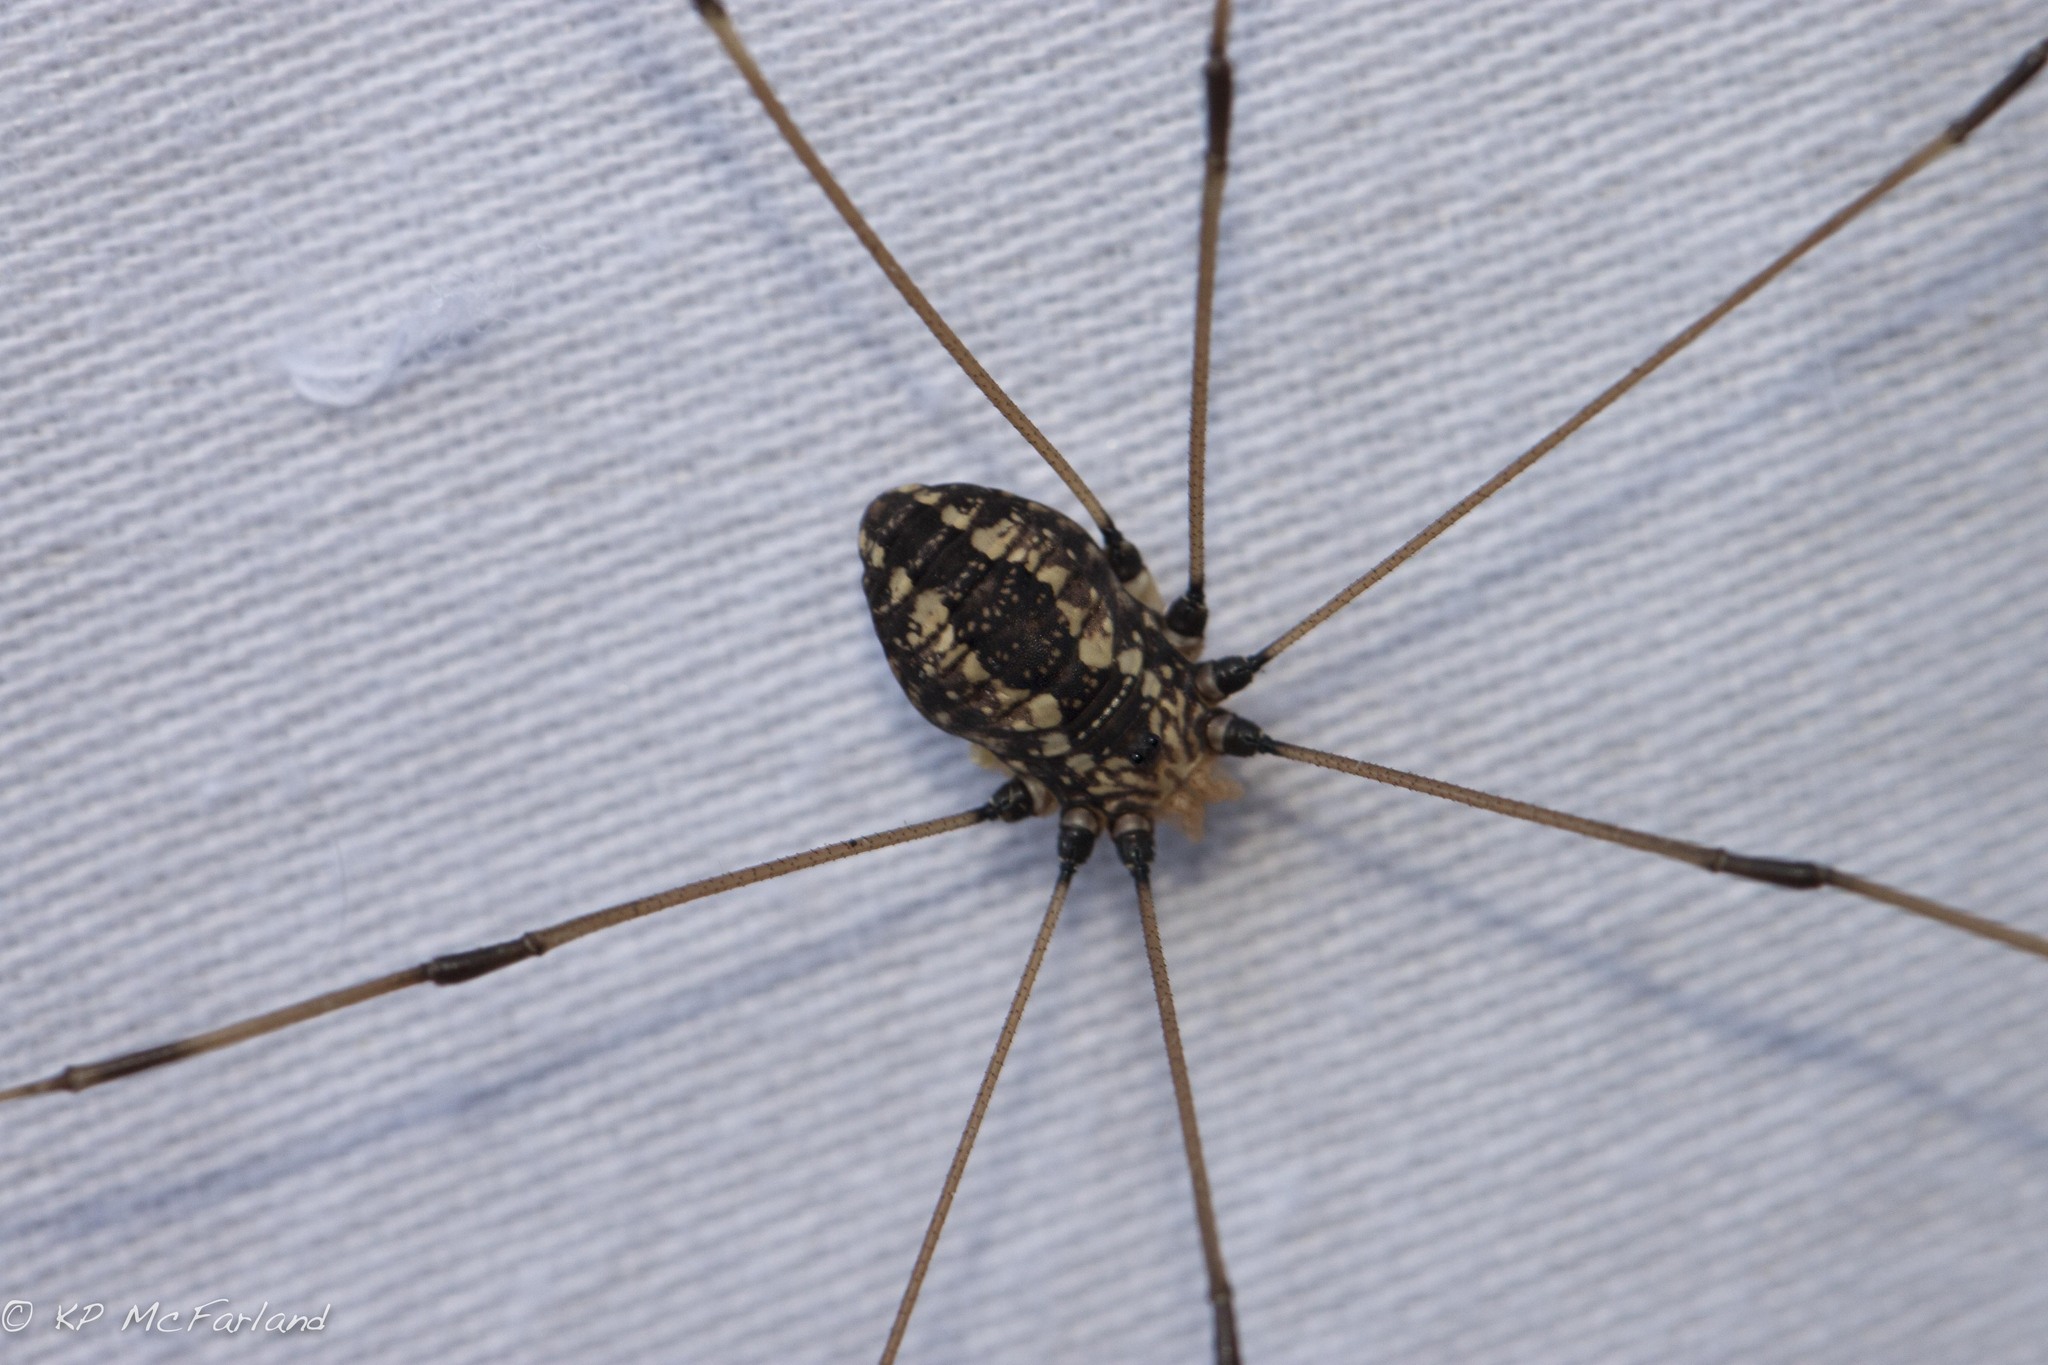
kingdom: Animalia
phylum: Arthropoda
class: Arachnida
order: Opiliones
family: Sclerosomatidae
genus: Leiobunum
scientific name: Leiobunum vittatum
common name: Eastern harvestman
